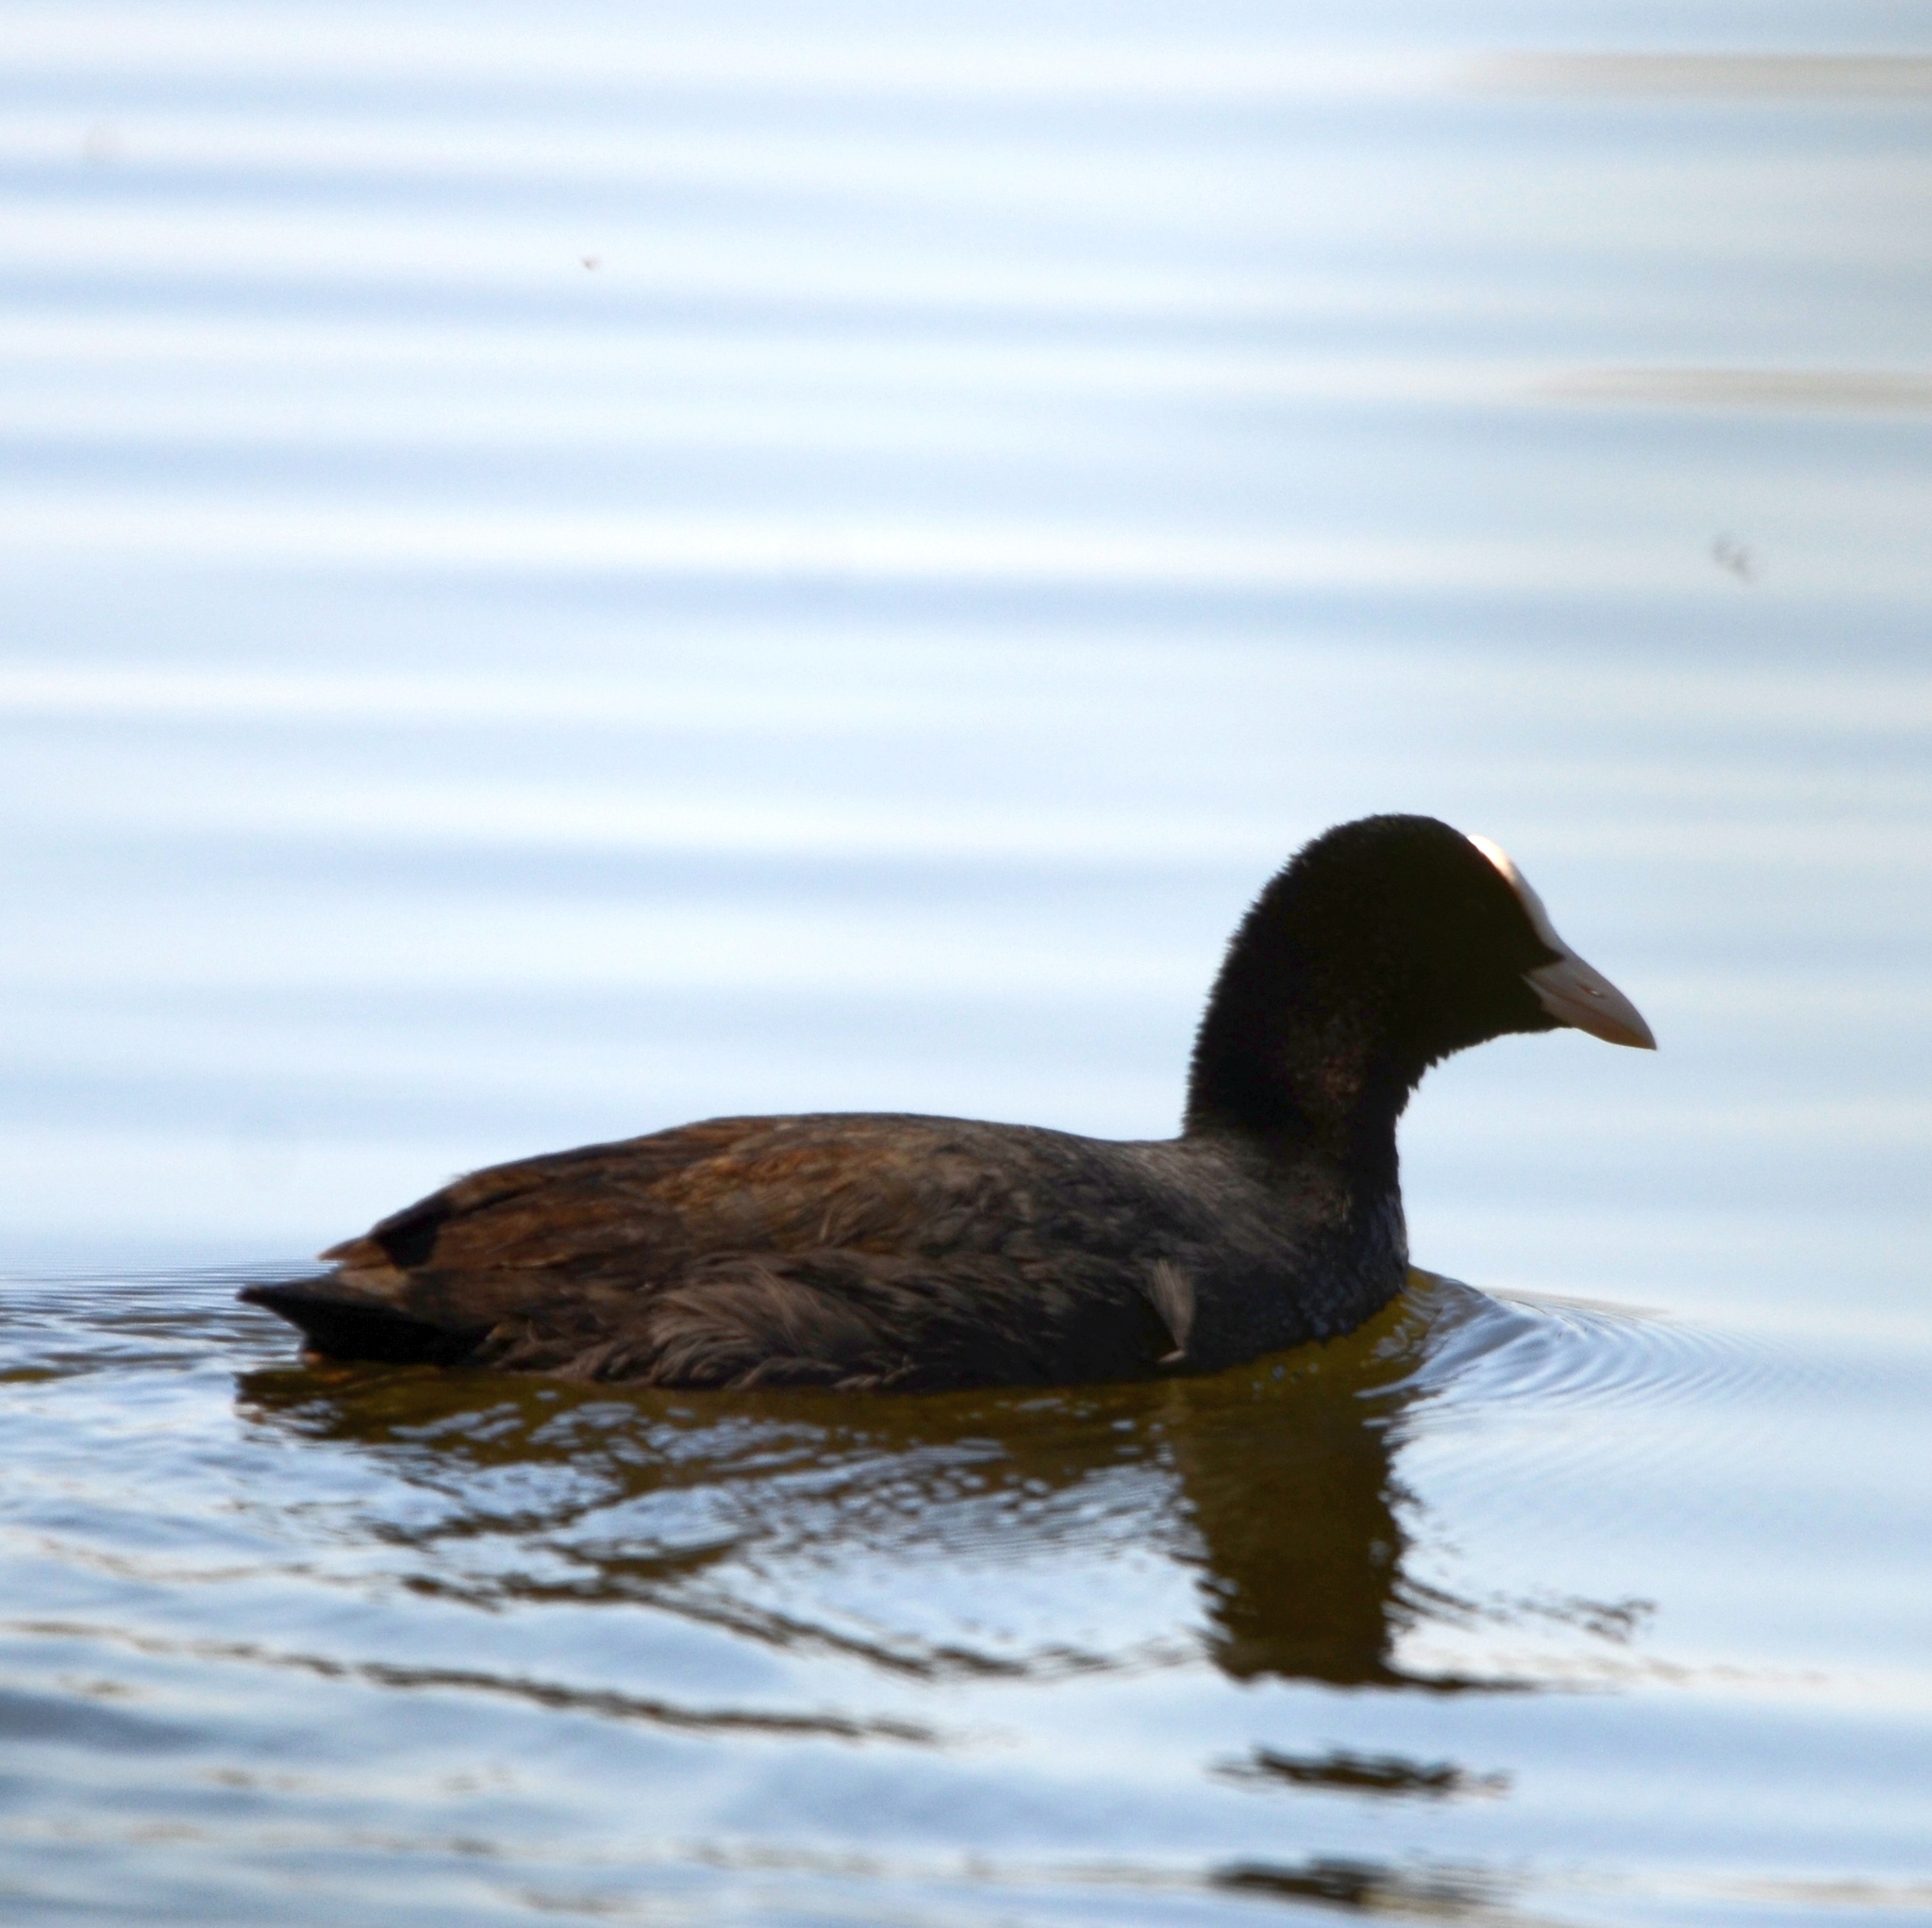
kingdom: Animalia
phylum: Chordata
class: Aves
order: Gruiformes
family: Rallidae
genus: Fulica
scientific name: Fulica atra
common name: Eurasian coot
